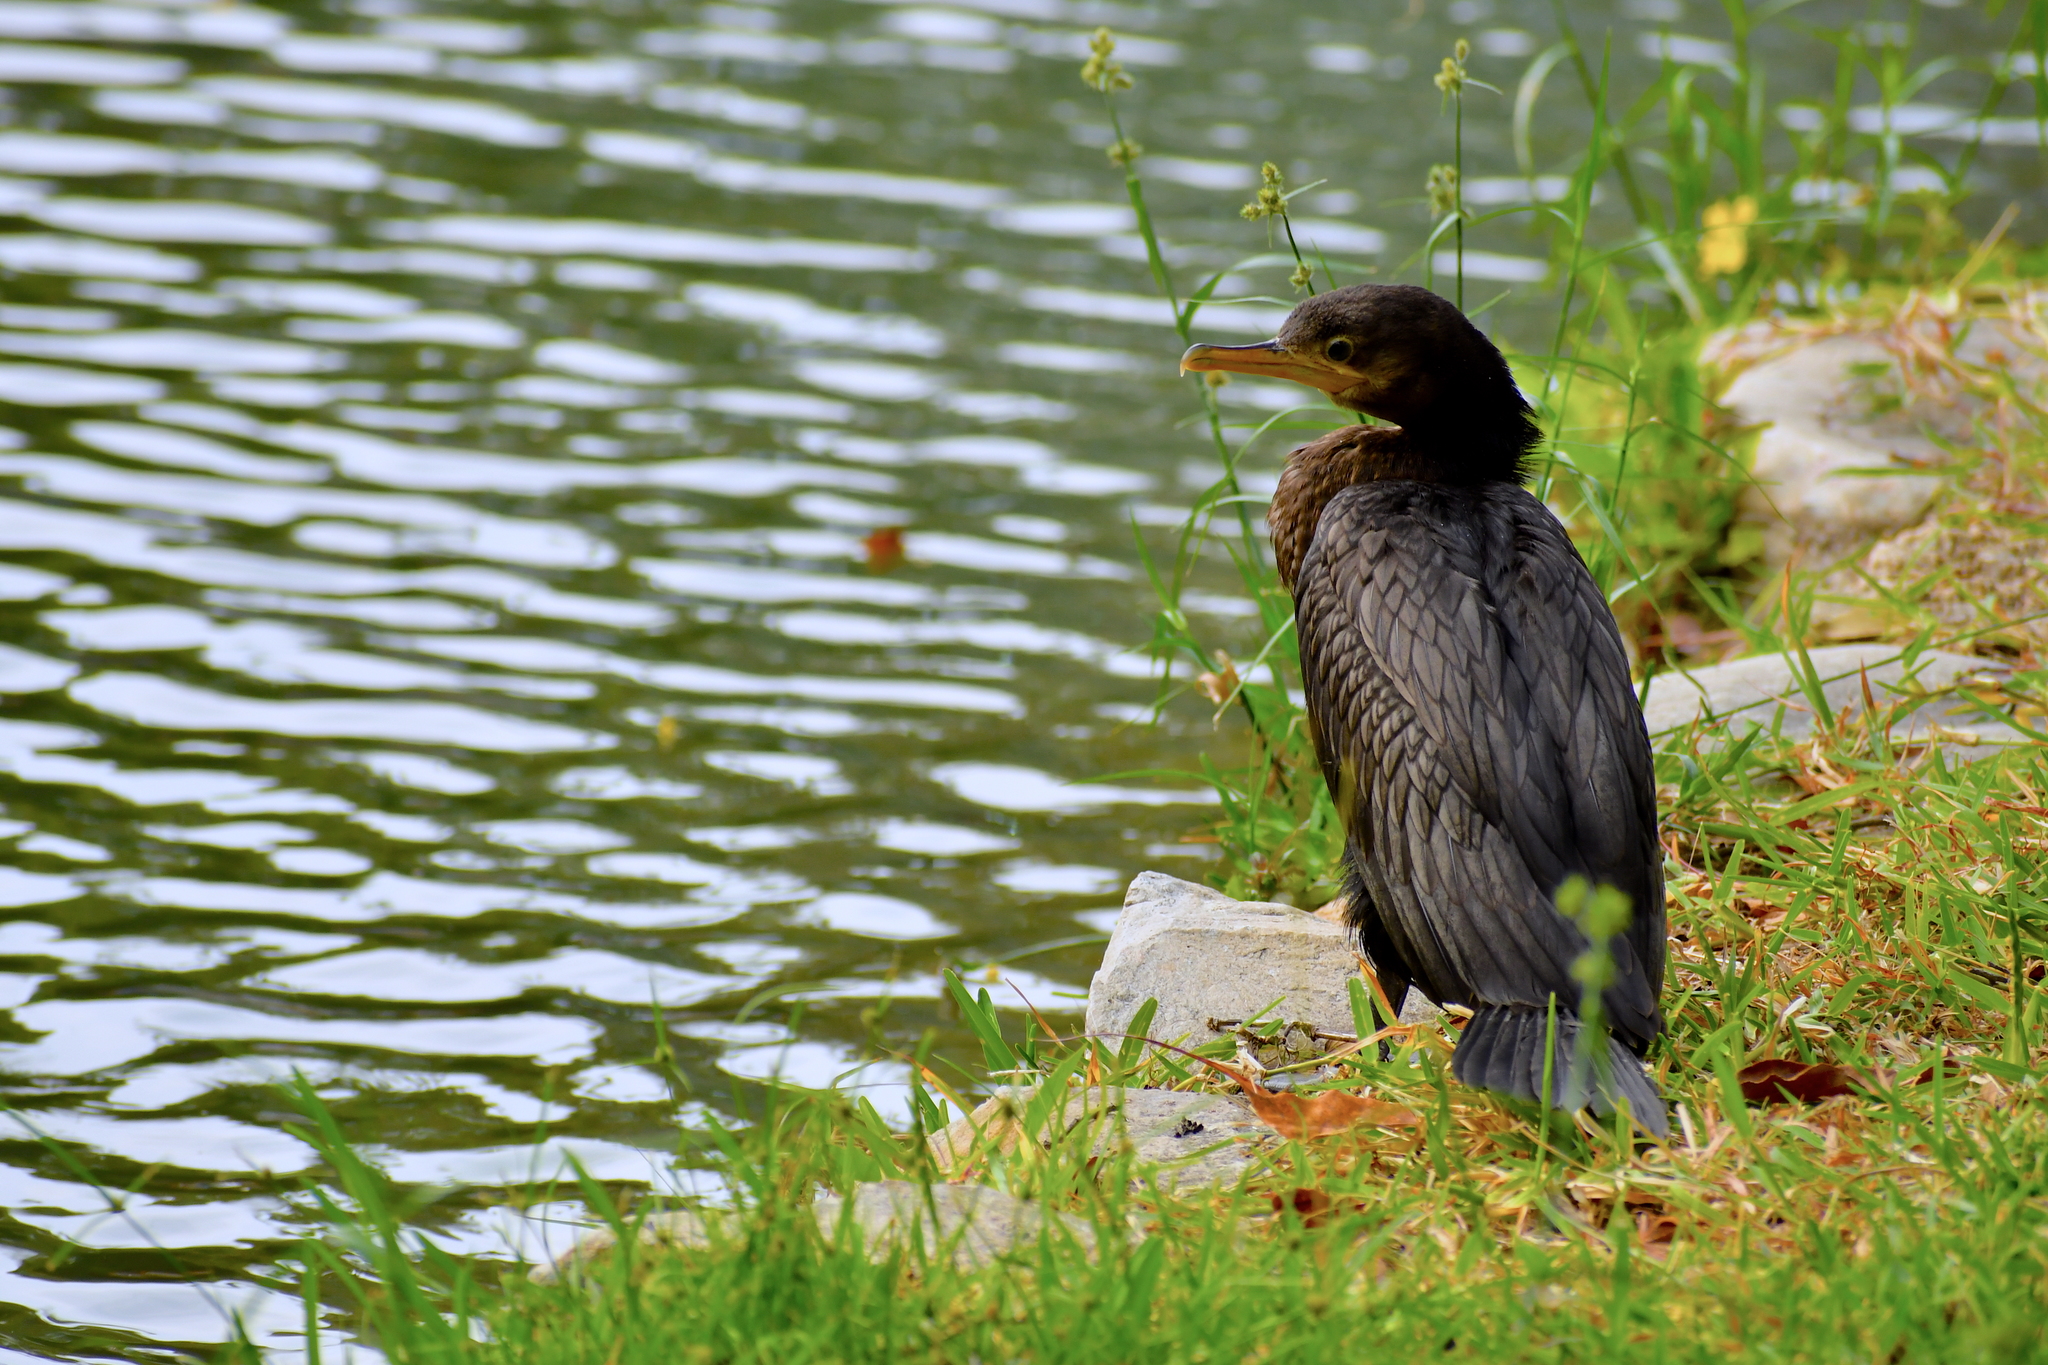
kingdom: Animalia
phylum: Chordata
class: Aves
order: Suliformes
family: Phalacrocoracidae
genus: Phalacrocorax
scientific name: Phalacrocorax brasilianus
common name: Neotropic cormorant
